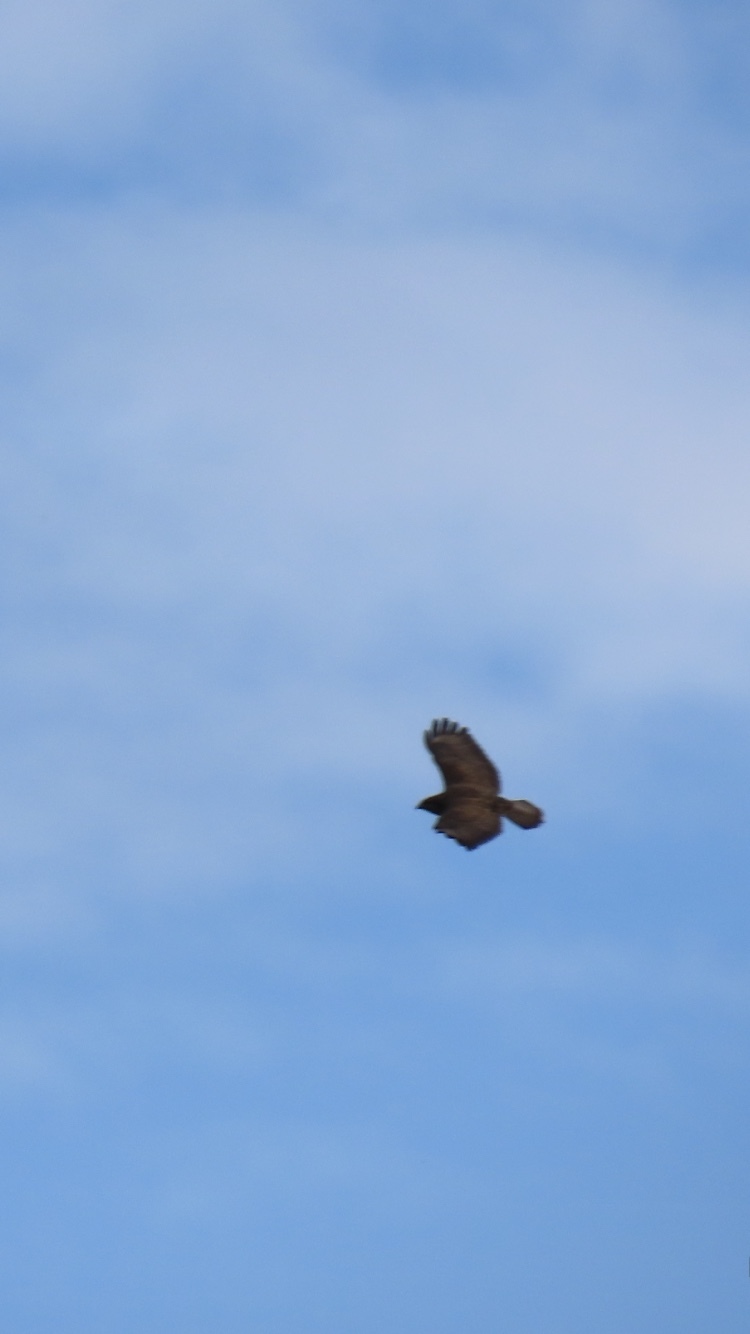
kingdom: Animalia
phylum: Chordata
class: Aves
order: Accipitriformes
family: Accipitridae
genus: Buteo
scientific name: Buteo buteo
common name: Common buzzard
